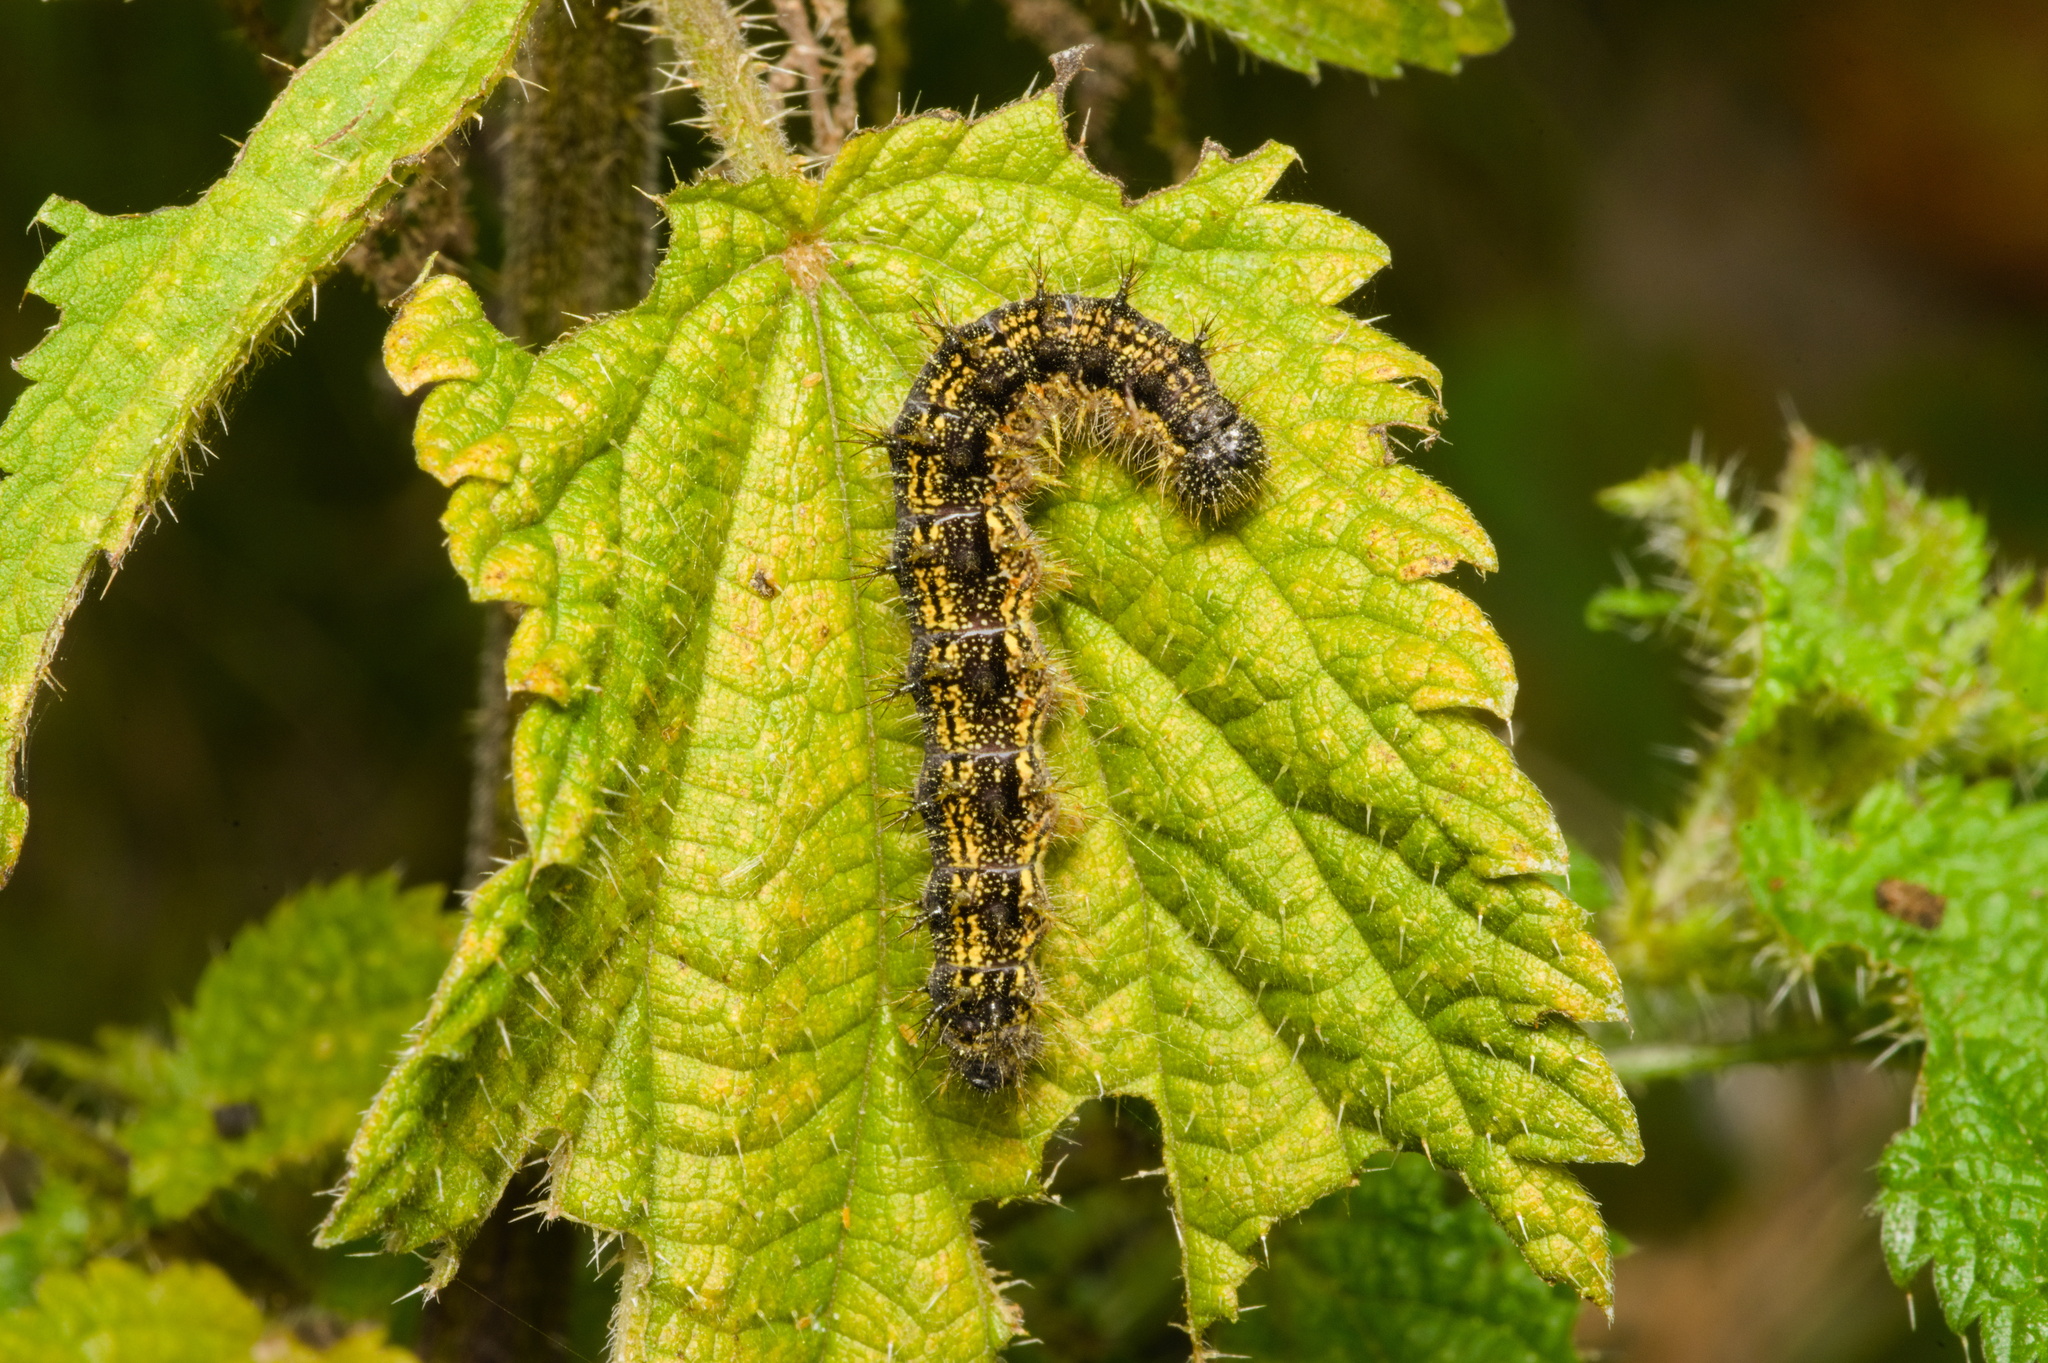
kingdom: Animalia
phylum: Arthropoda
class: Insecta
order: Lepidoptera
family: Nymphalidae
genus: Aglais
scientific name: Aglais urticae
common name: Small tortoiseshell
